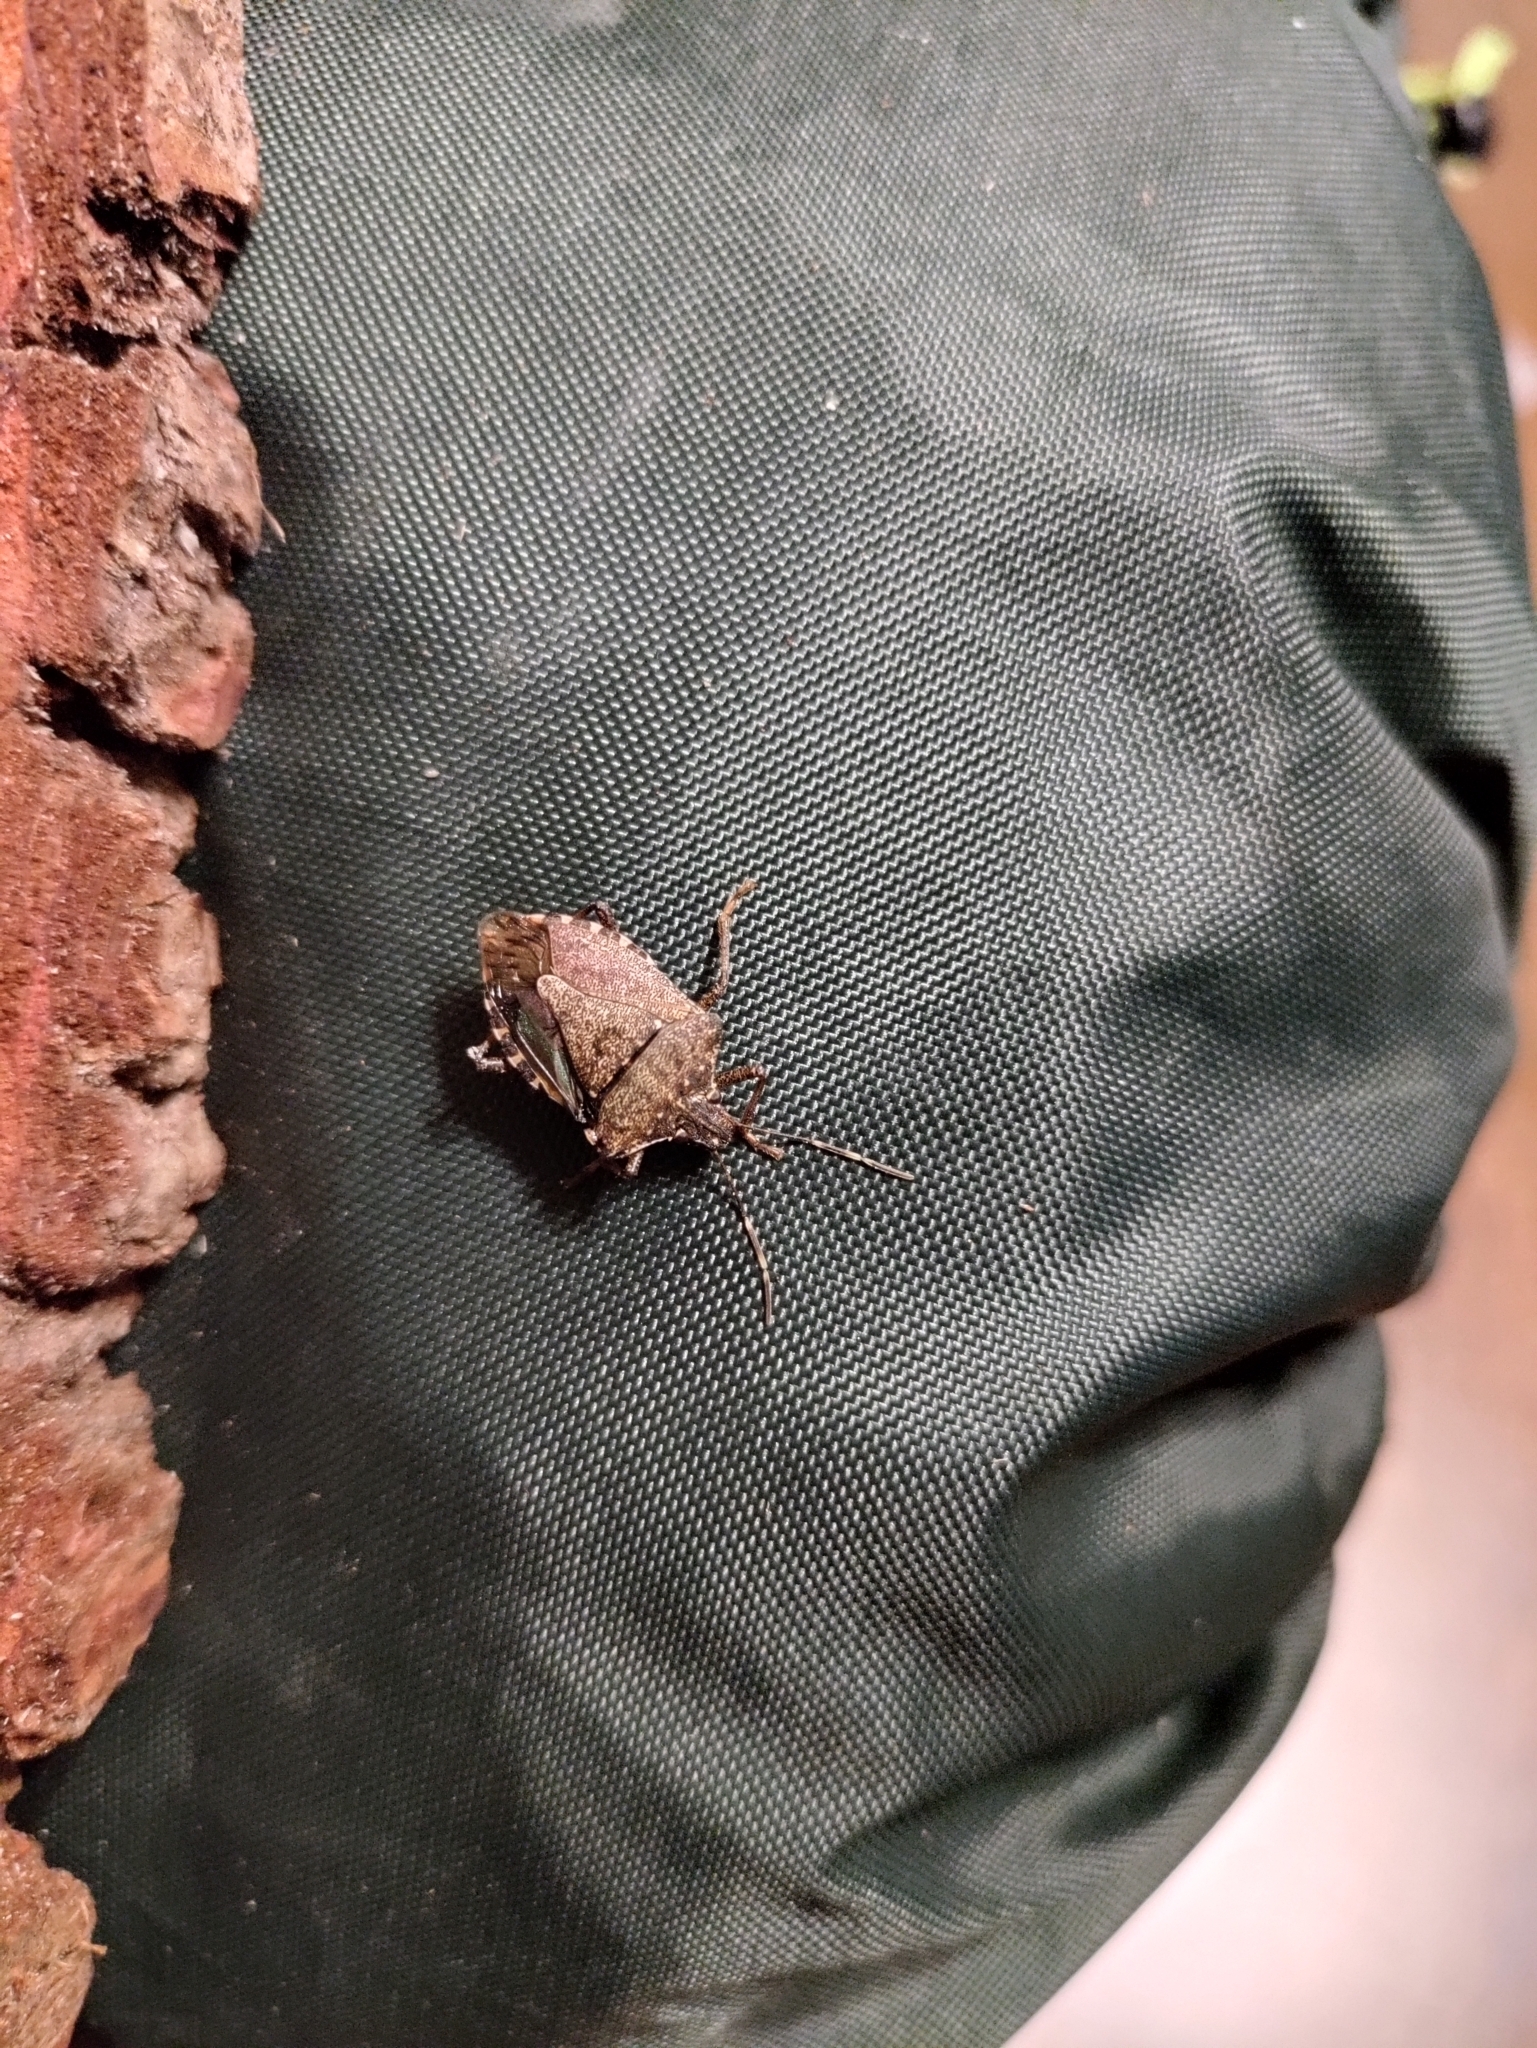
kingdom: Animalia
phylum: Arthropoda
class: Insecta
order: Hemiptera
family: Pentatomidae
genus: Halyomorpha
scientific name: Halyomorpha halys
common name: Brown marmorated stink bug
